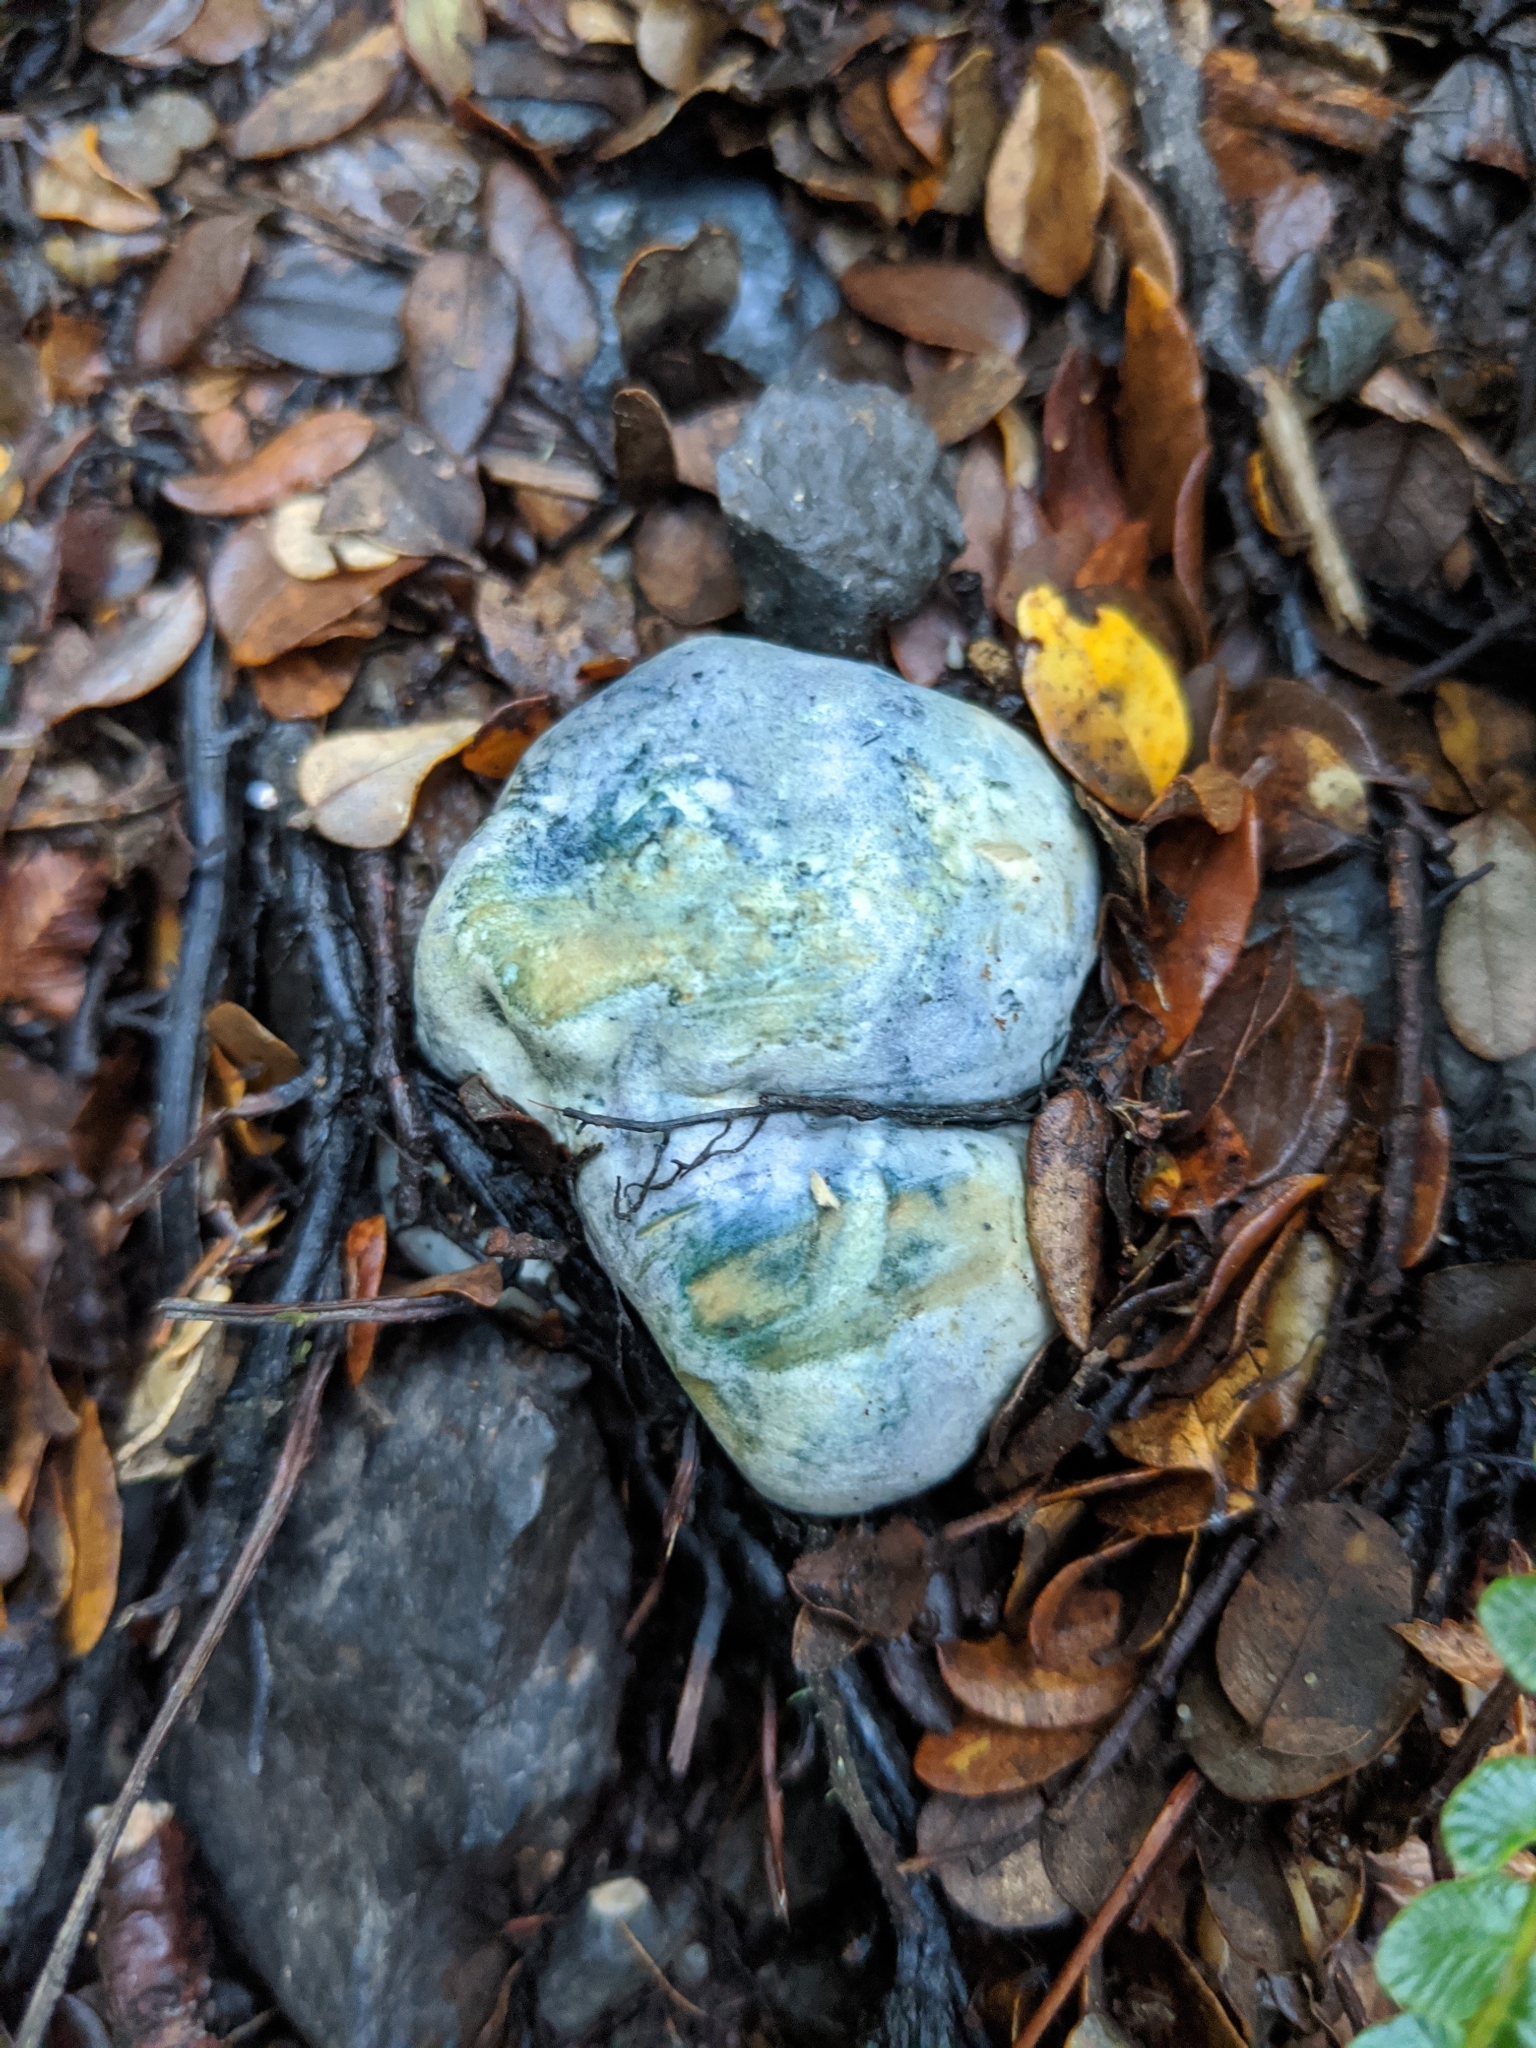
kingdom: Fungi
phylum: Basidiomycota
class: Agaricomycetes
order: Boletales
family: Boletaceae
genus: Leccinum
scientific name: Leccinum pachyderme
